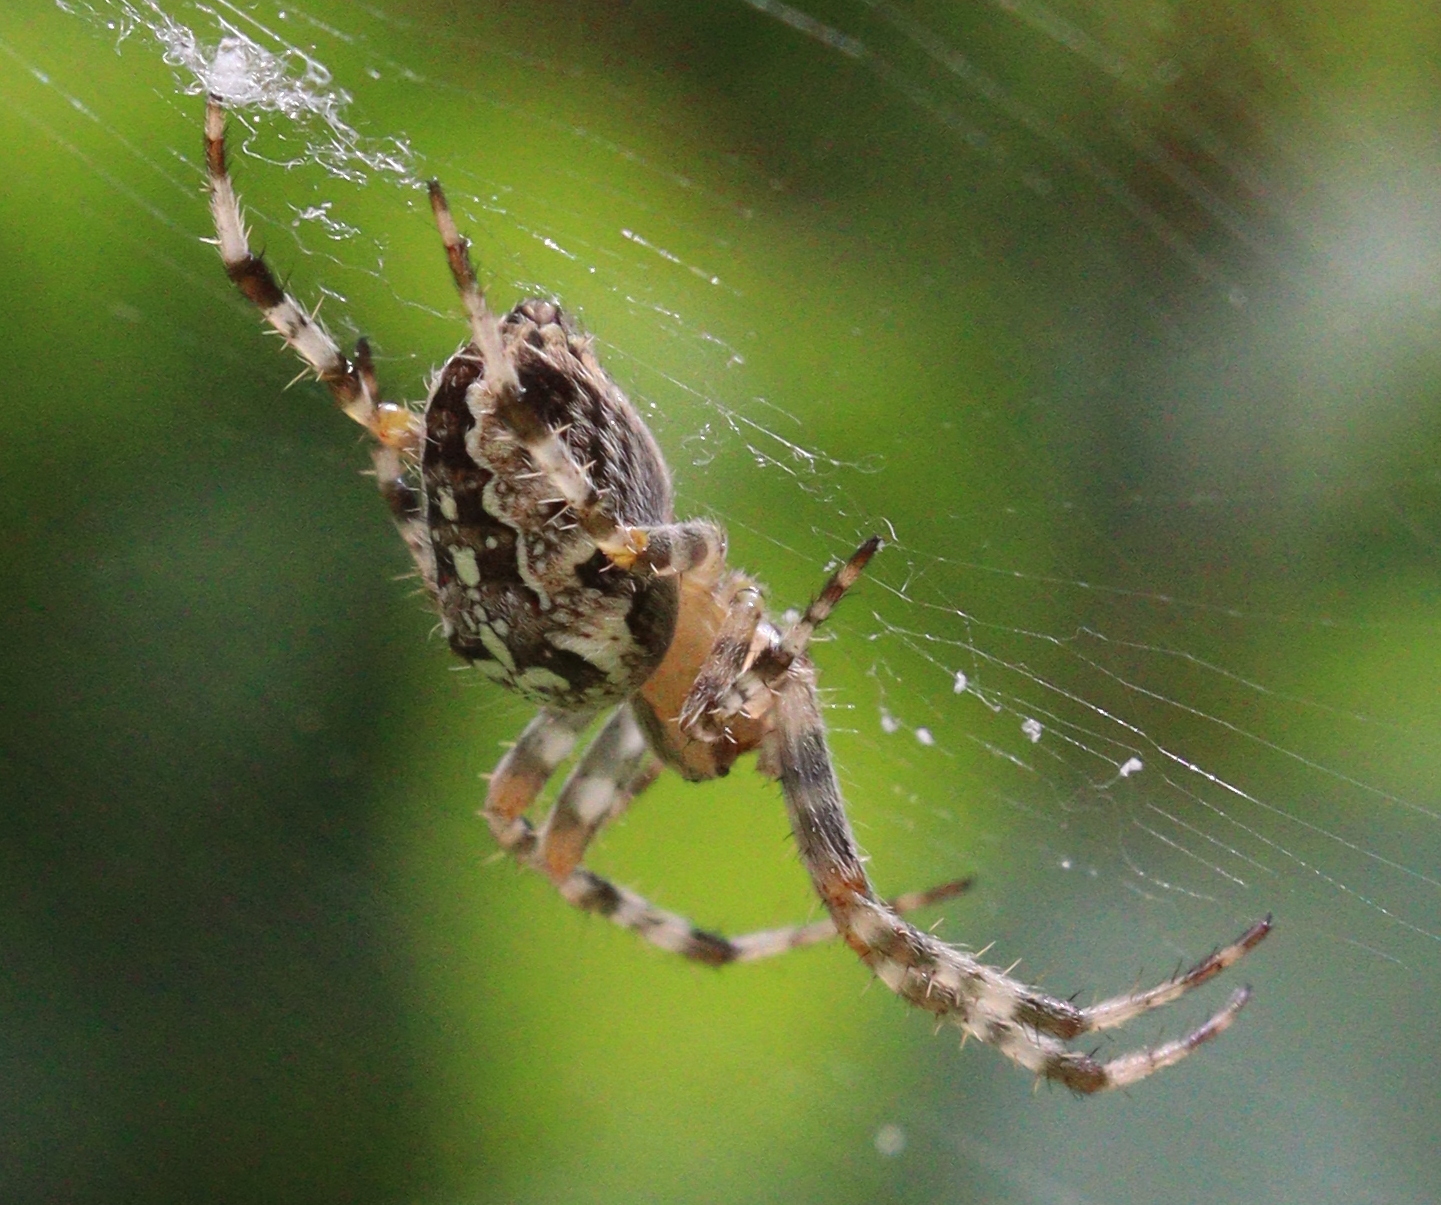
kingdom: Animalia
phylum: Arthropoda
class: Arachnida
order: Araneae
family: Araneidae
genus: Araneus
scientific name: Araneus diadematus
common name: Cross orbweaver
